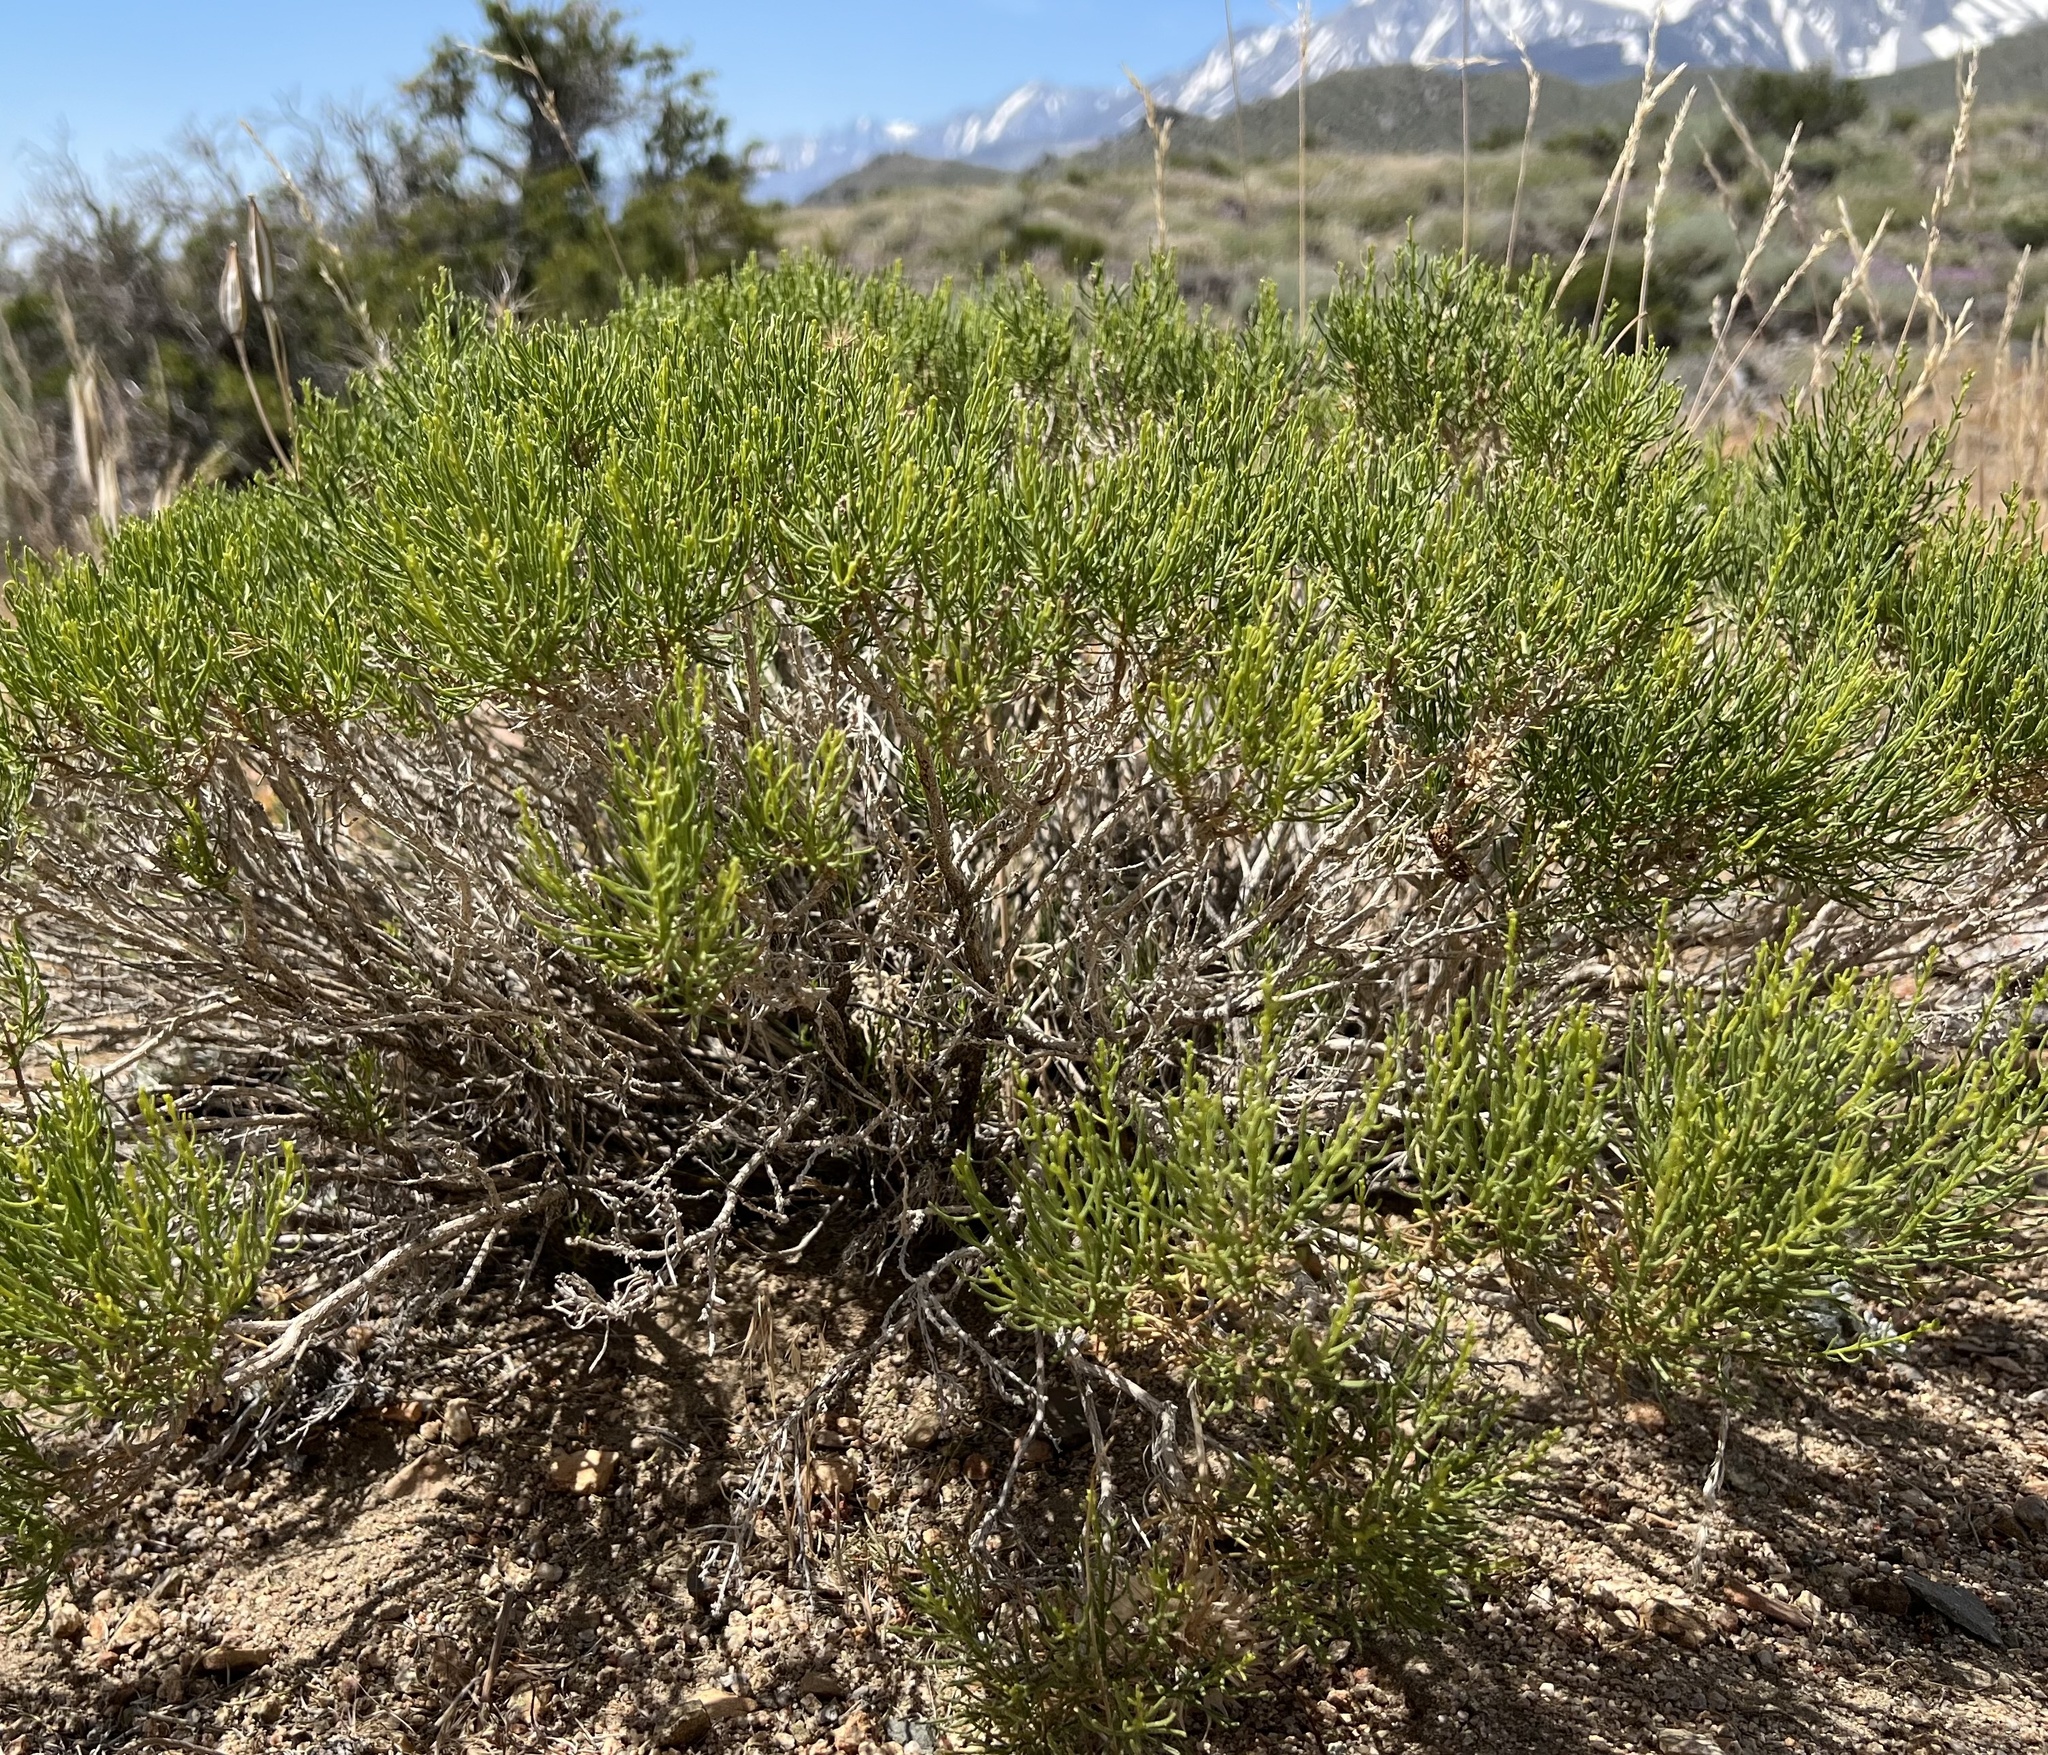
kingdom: Plantae
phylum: Tracheophyta
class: Magnoliopsida
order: Asterales
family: Asteraceae
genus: Ericameria
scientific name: Ericameria teretifolia
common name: Round-leaf rabbitbrush
